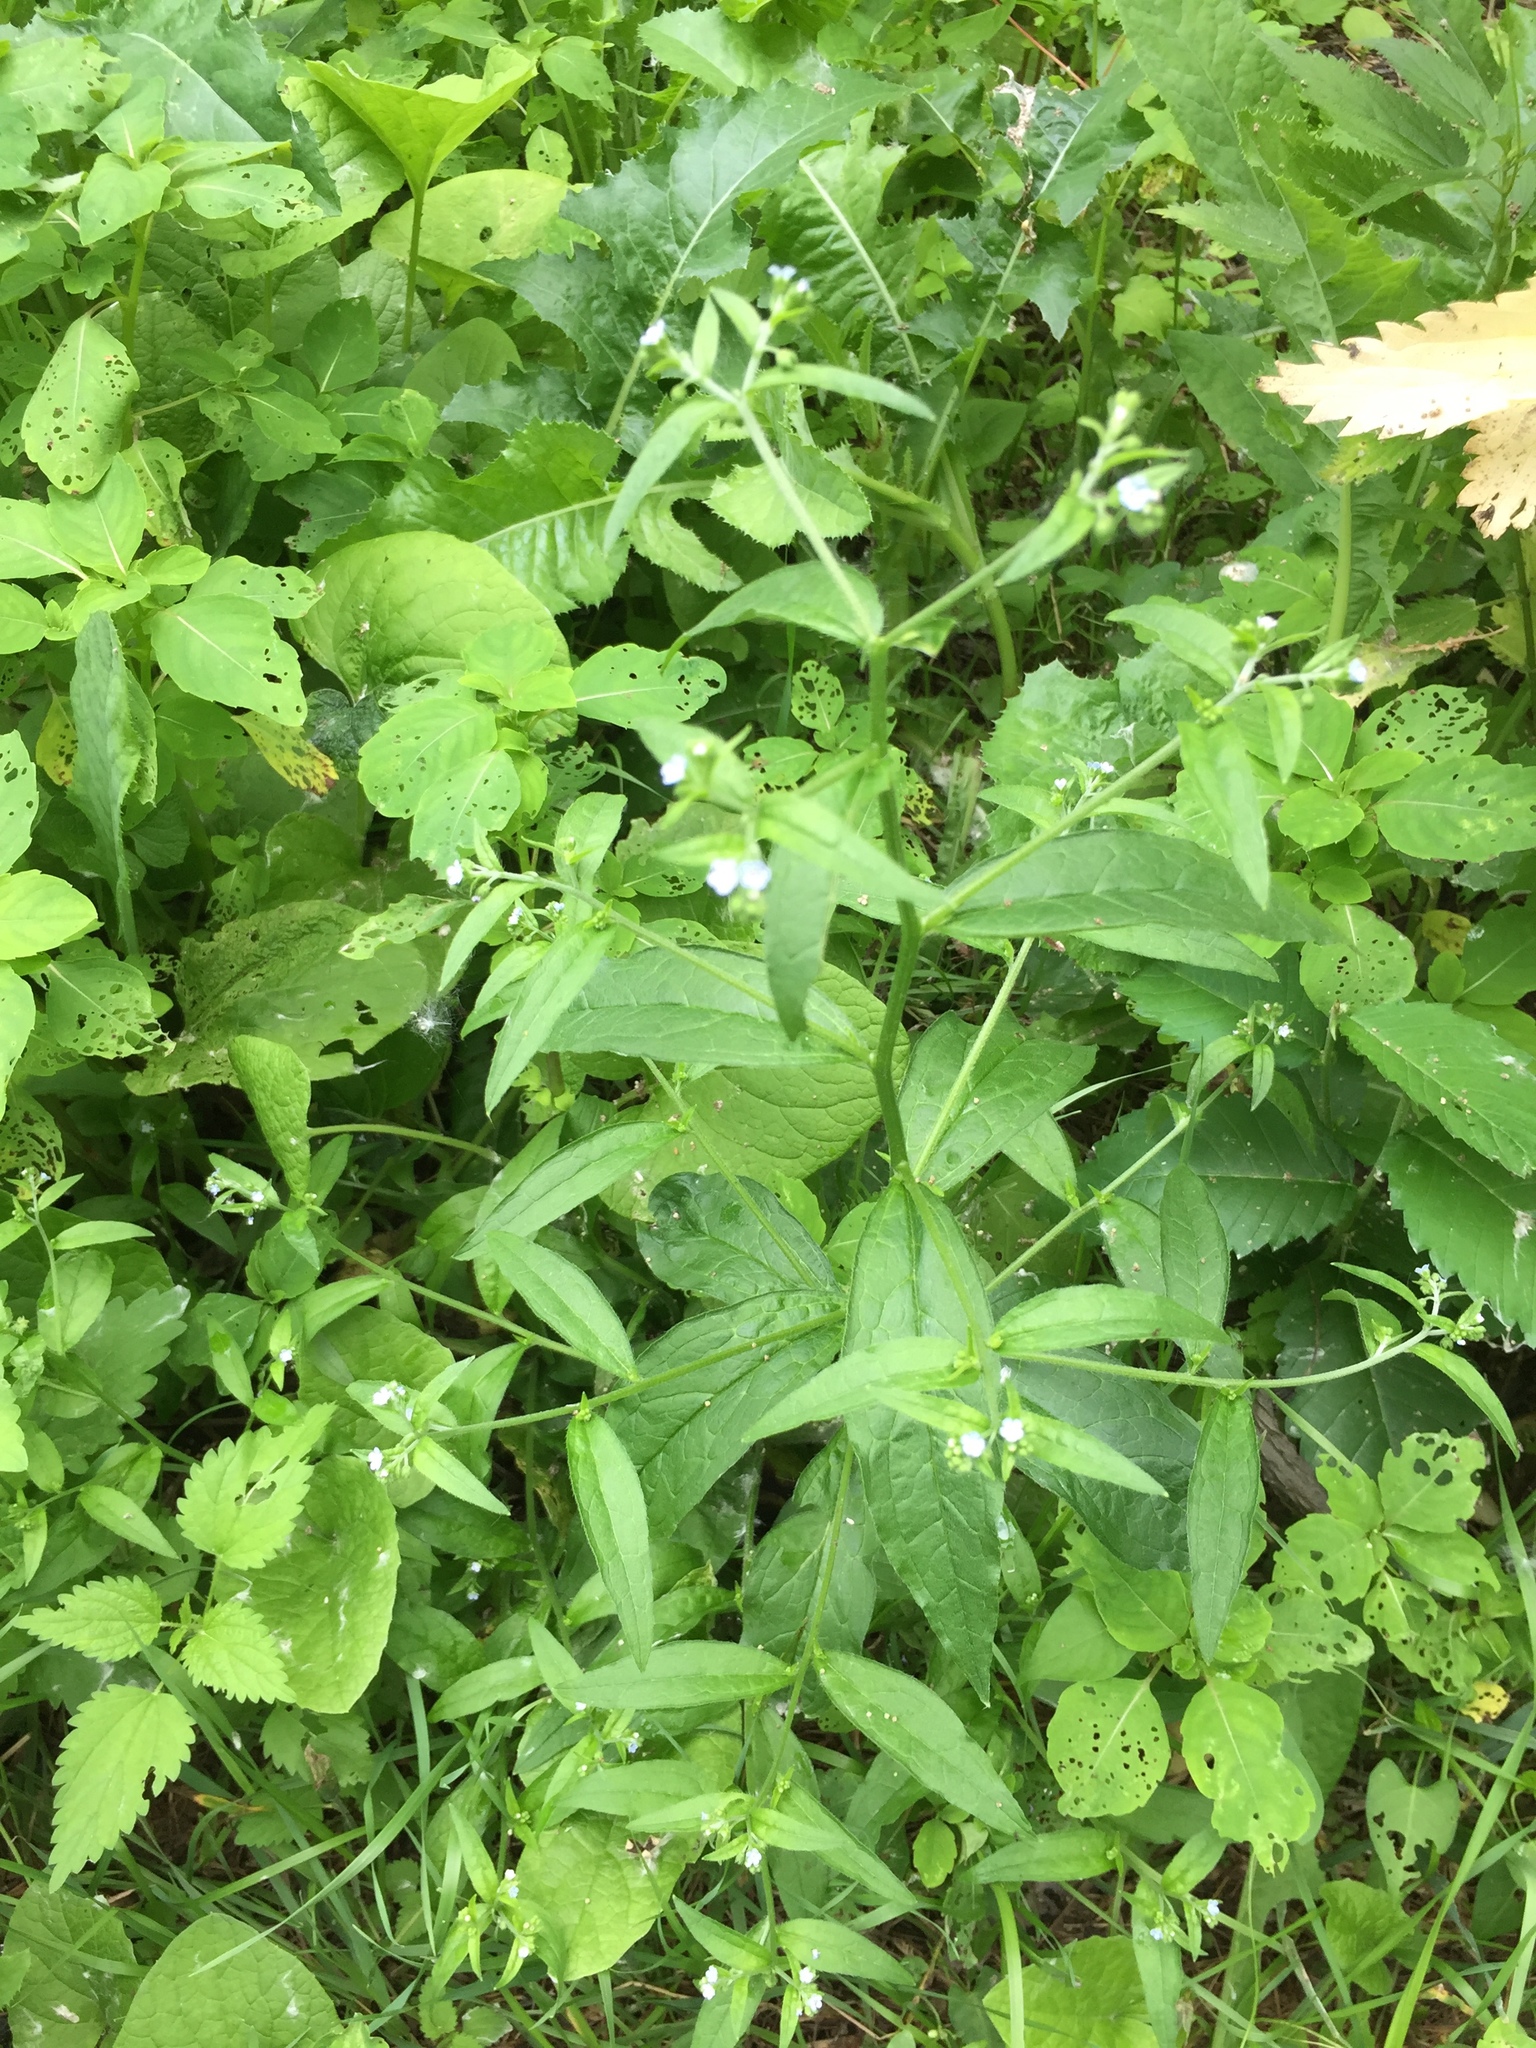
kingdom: Plantae
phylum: Tracheophyta
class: Magnoliopsida
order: Boraginales
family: Boraginaceae
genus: Hackelia
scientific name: Hackelia deflexa
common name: Nodding stickseed
